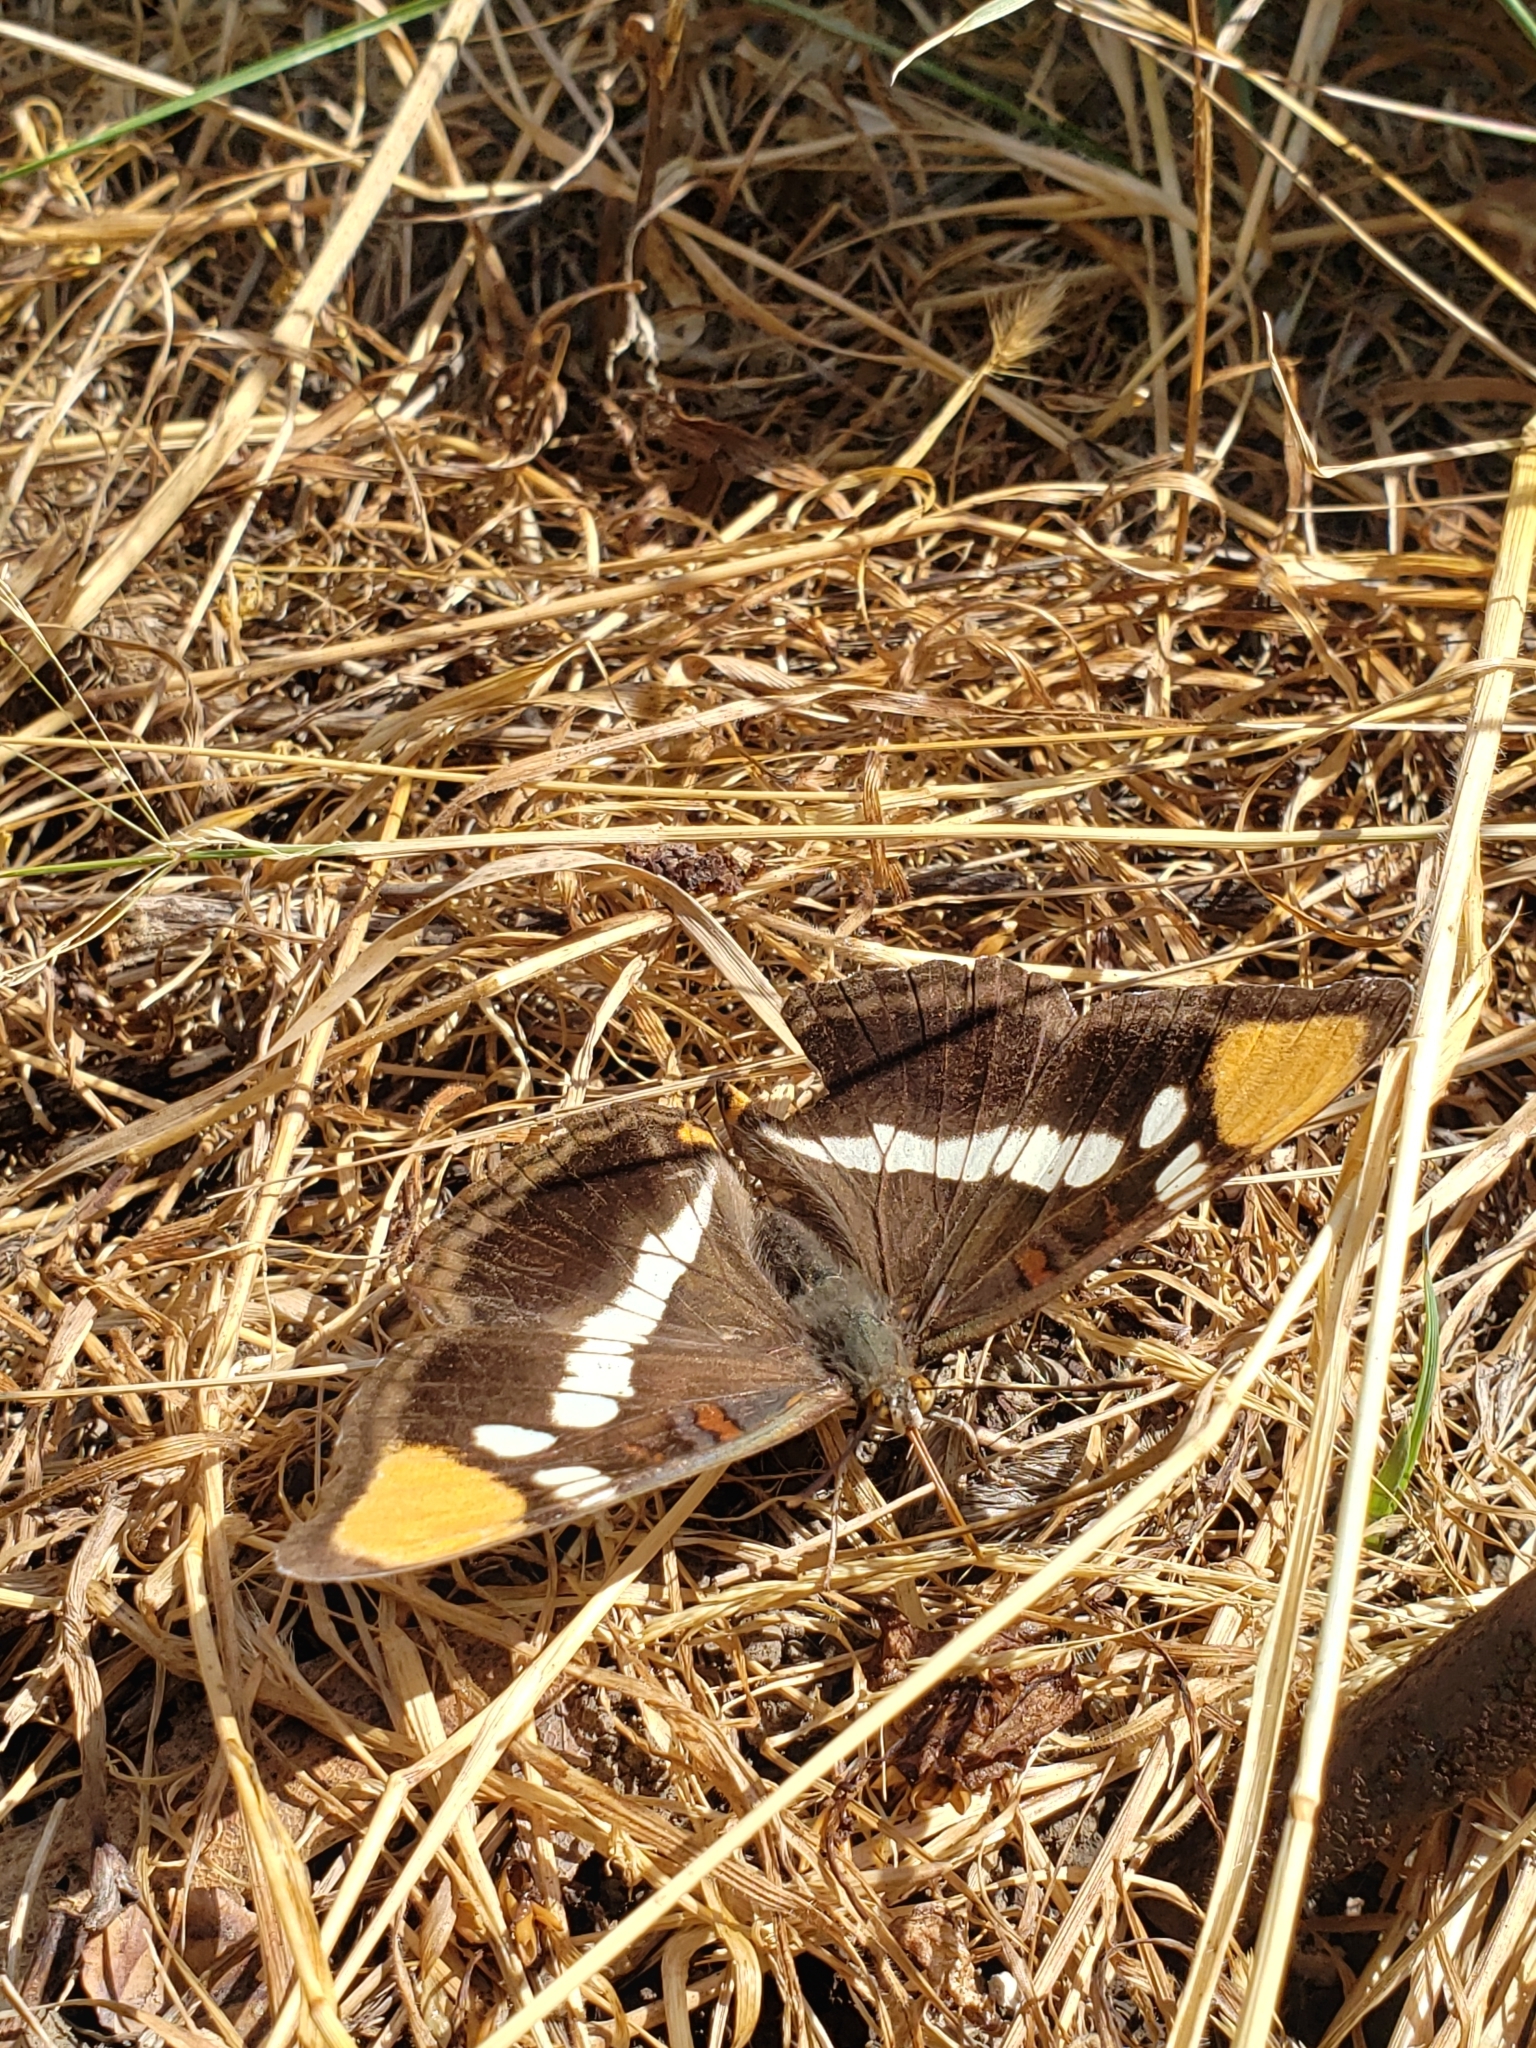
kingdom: Animalia
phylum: Arthropoda
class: Insecta
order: Lepidoptera
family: Nymphalidae
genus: Limenitis
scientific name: Limenitis bredowii
